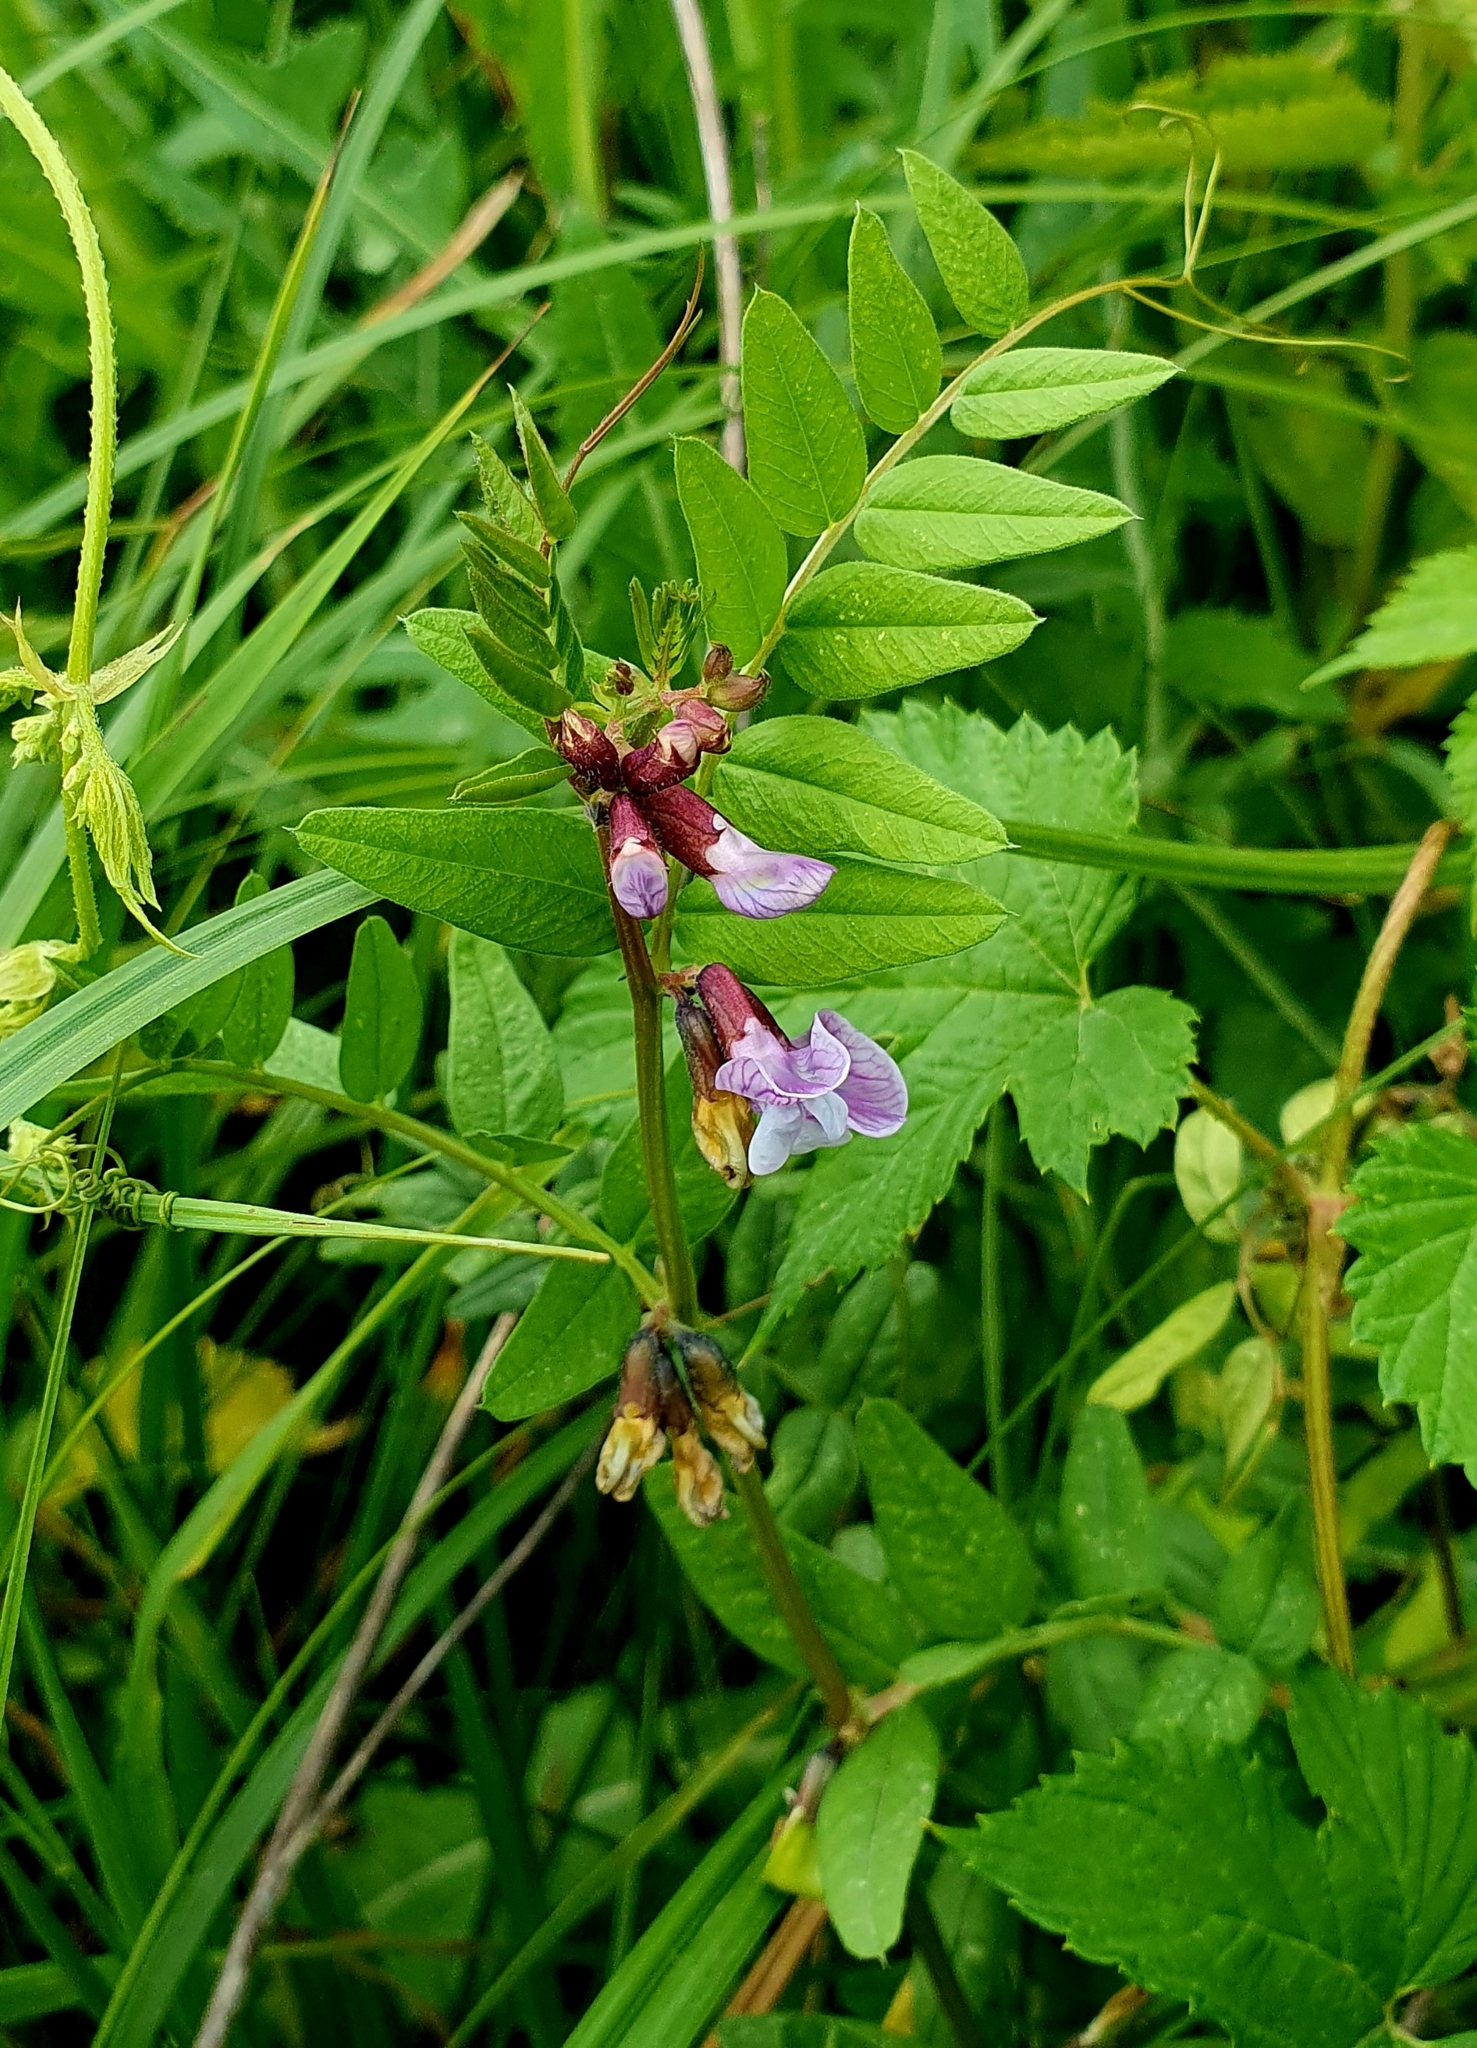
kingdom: Plantae
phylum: Tracheophyta
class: Magnoliopsida
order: Fabales
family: Fabaceae
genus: Vicia
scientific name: Vicia sepium
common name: Bush vetch
